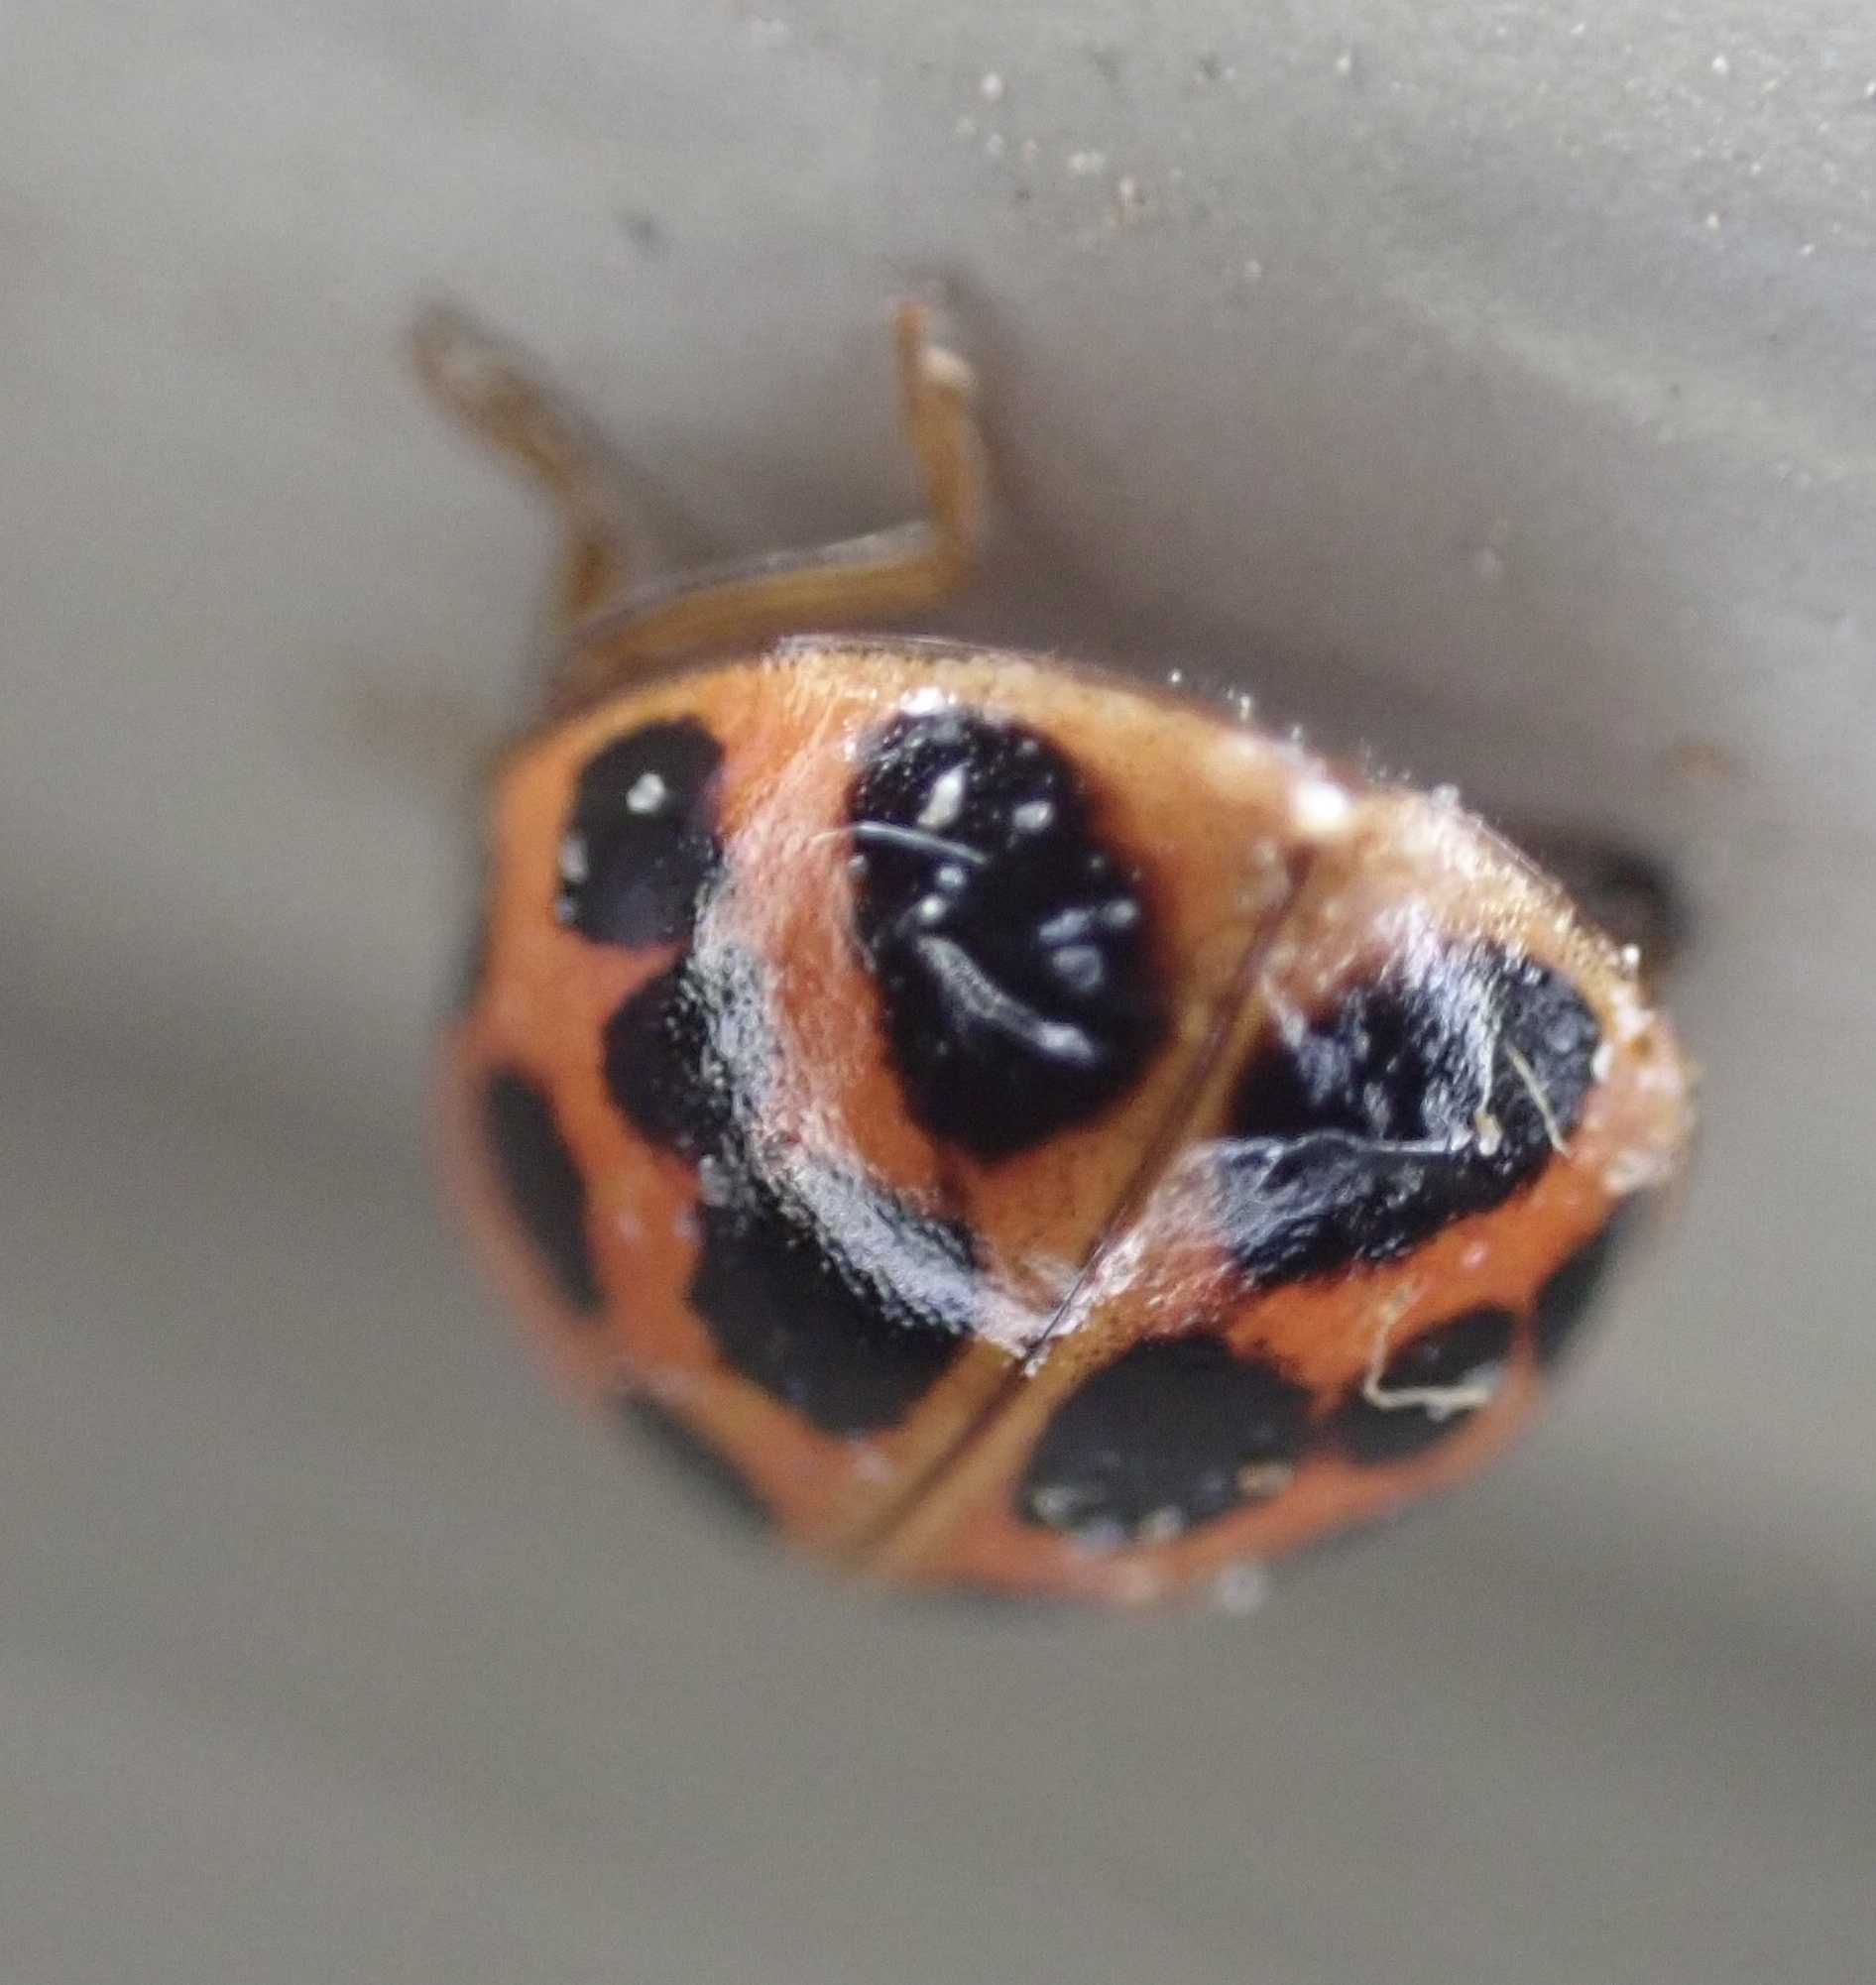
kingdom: Animalia
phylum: Arthropoda
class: Insecta
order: Coleoptera
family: Coccinellidae
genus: Harmonia
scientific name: Harmonia axyridis
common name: Harlequin ladybird
